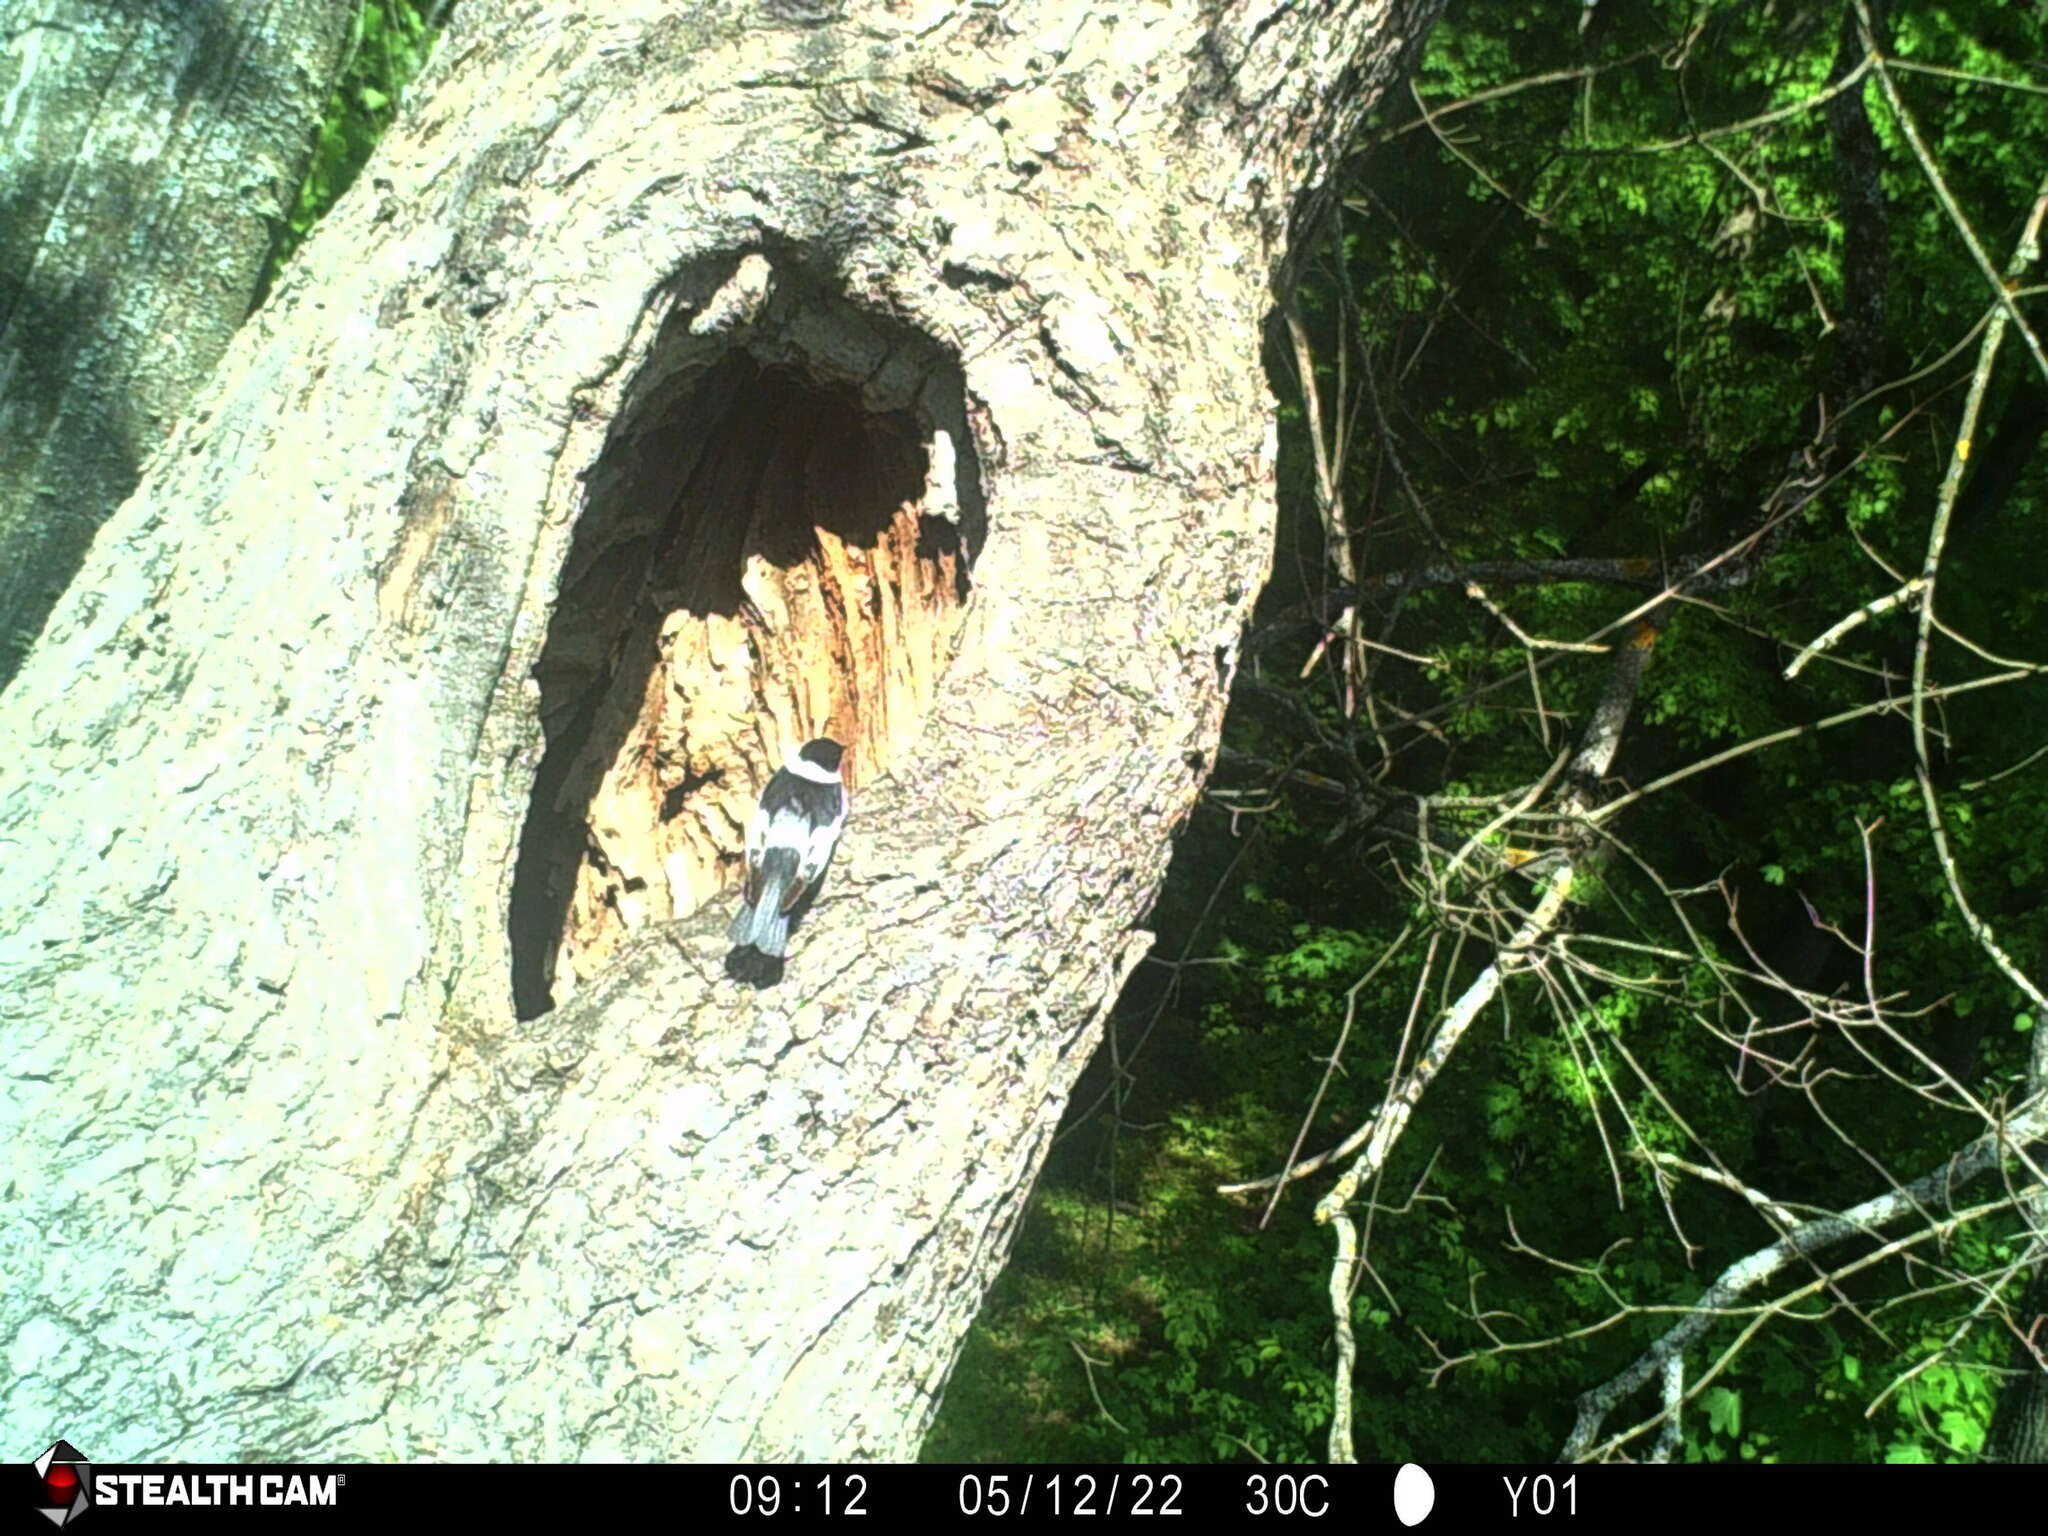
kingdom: Animalia
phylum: Chordata
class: Aves
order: Passeriformes
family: Muscicapidae
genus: Ficedula
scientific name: Ficedula albicollis
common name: Collared flycatcher
